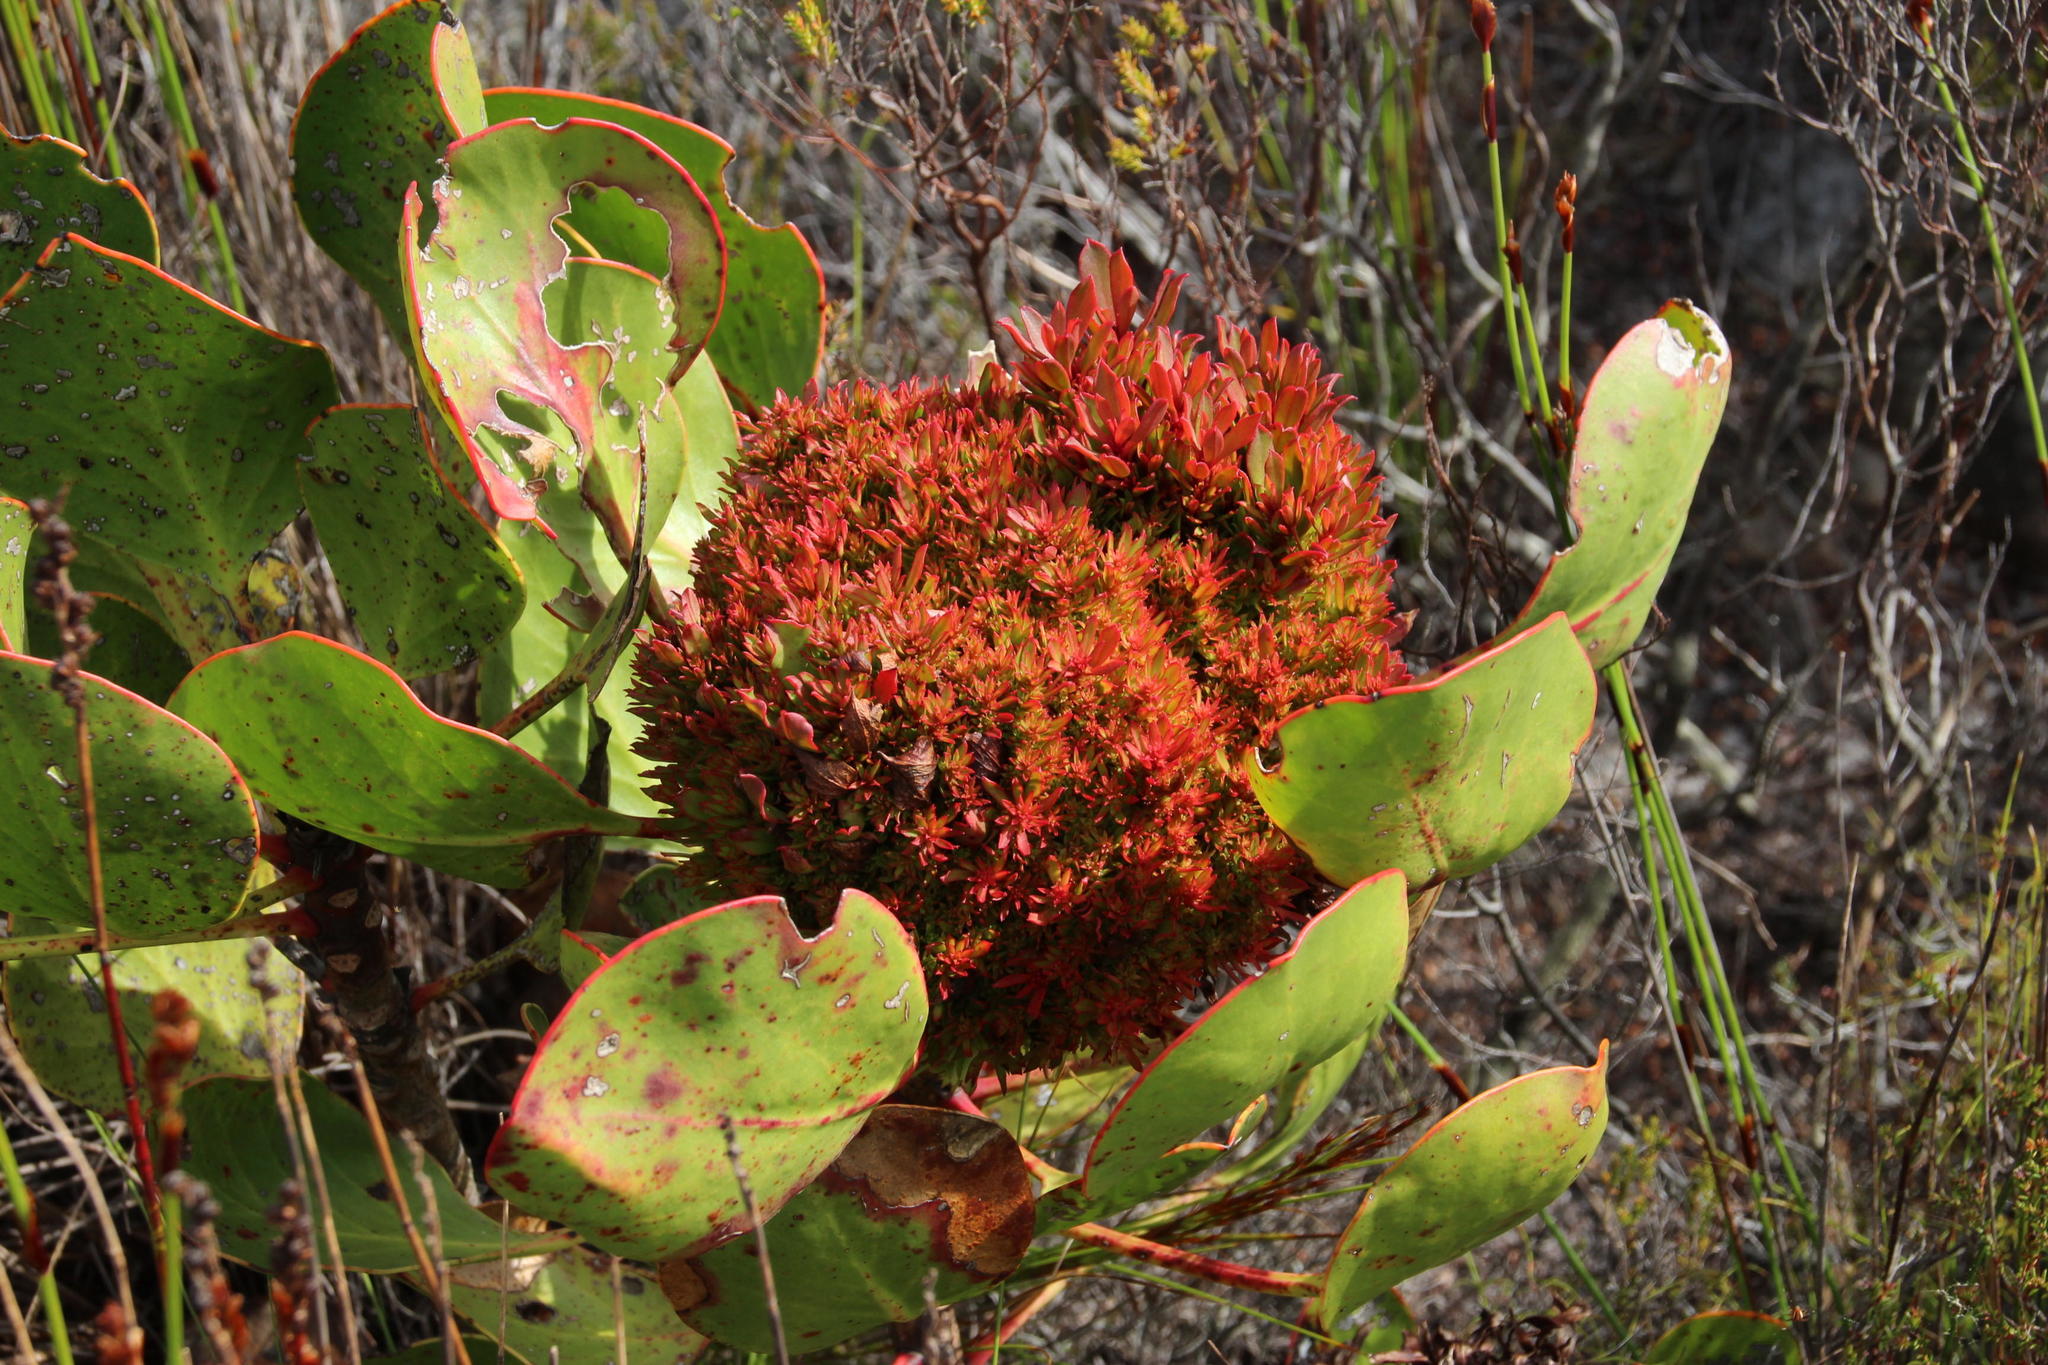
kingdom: Bacteria
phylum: Firmicutes
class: Bacilli
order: Acholeplasmatales
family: Acholeplasmataceae
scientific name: Acholeplasmataceae
